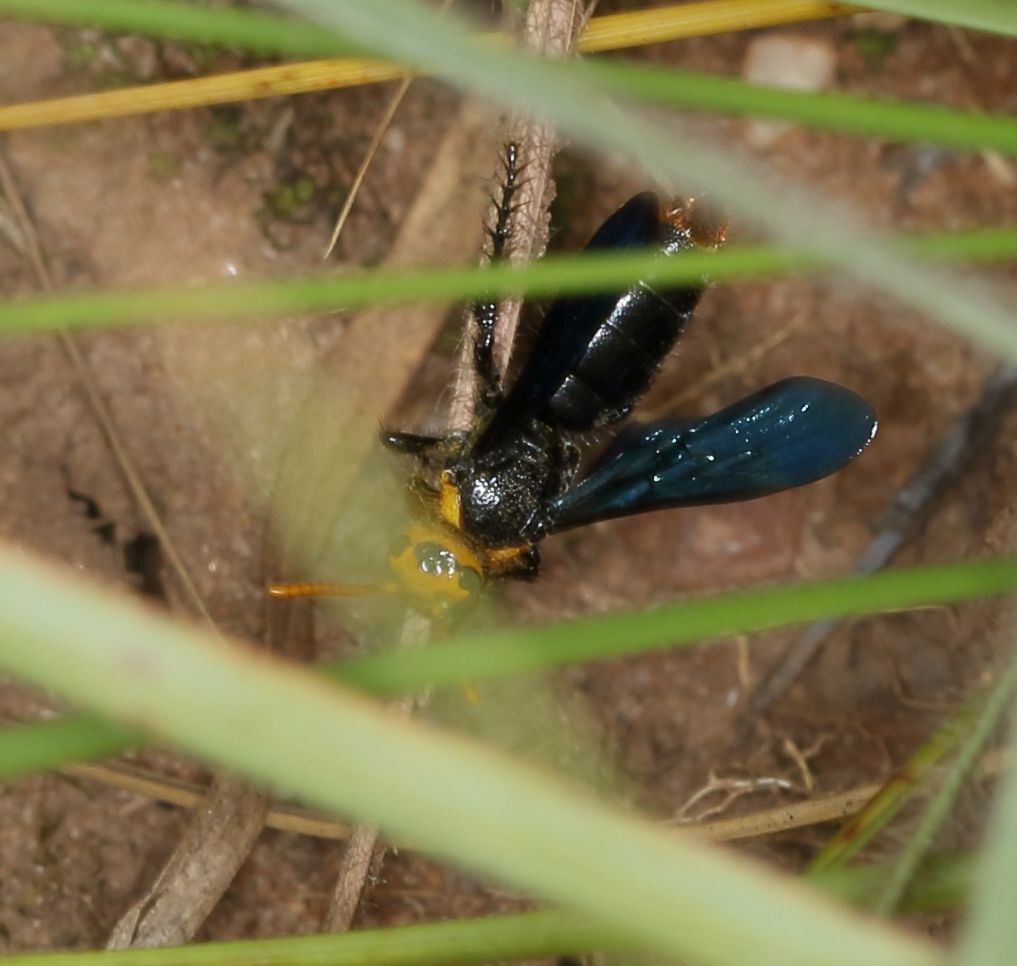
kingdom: Animalia
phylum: Arthropoda
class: Insecta
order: Hymenoptera
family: Scoliidae
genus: Scolia
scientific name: Scolia
